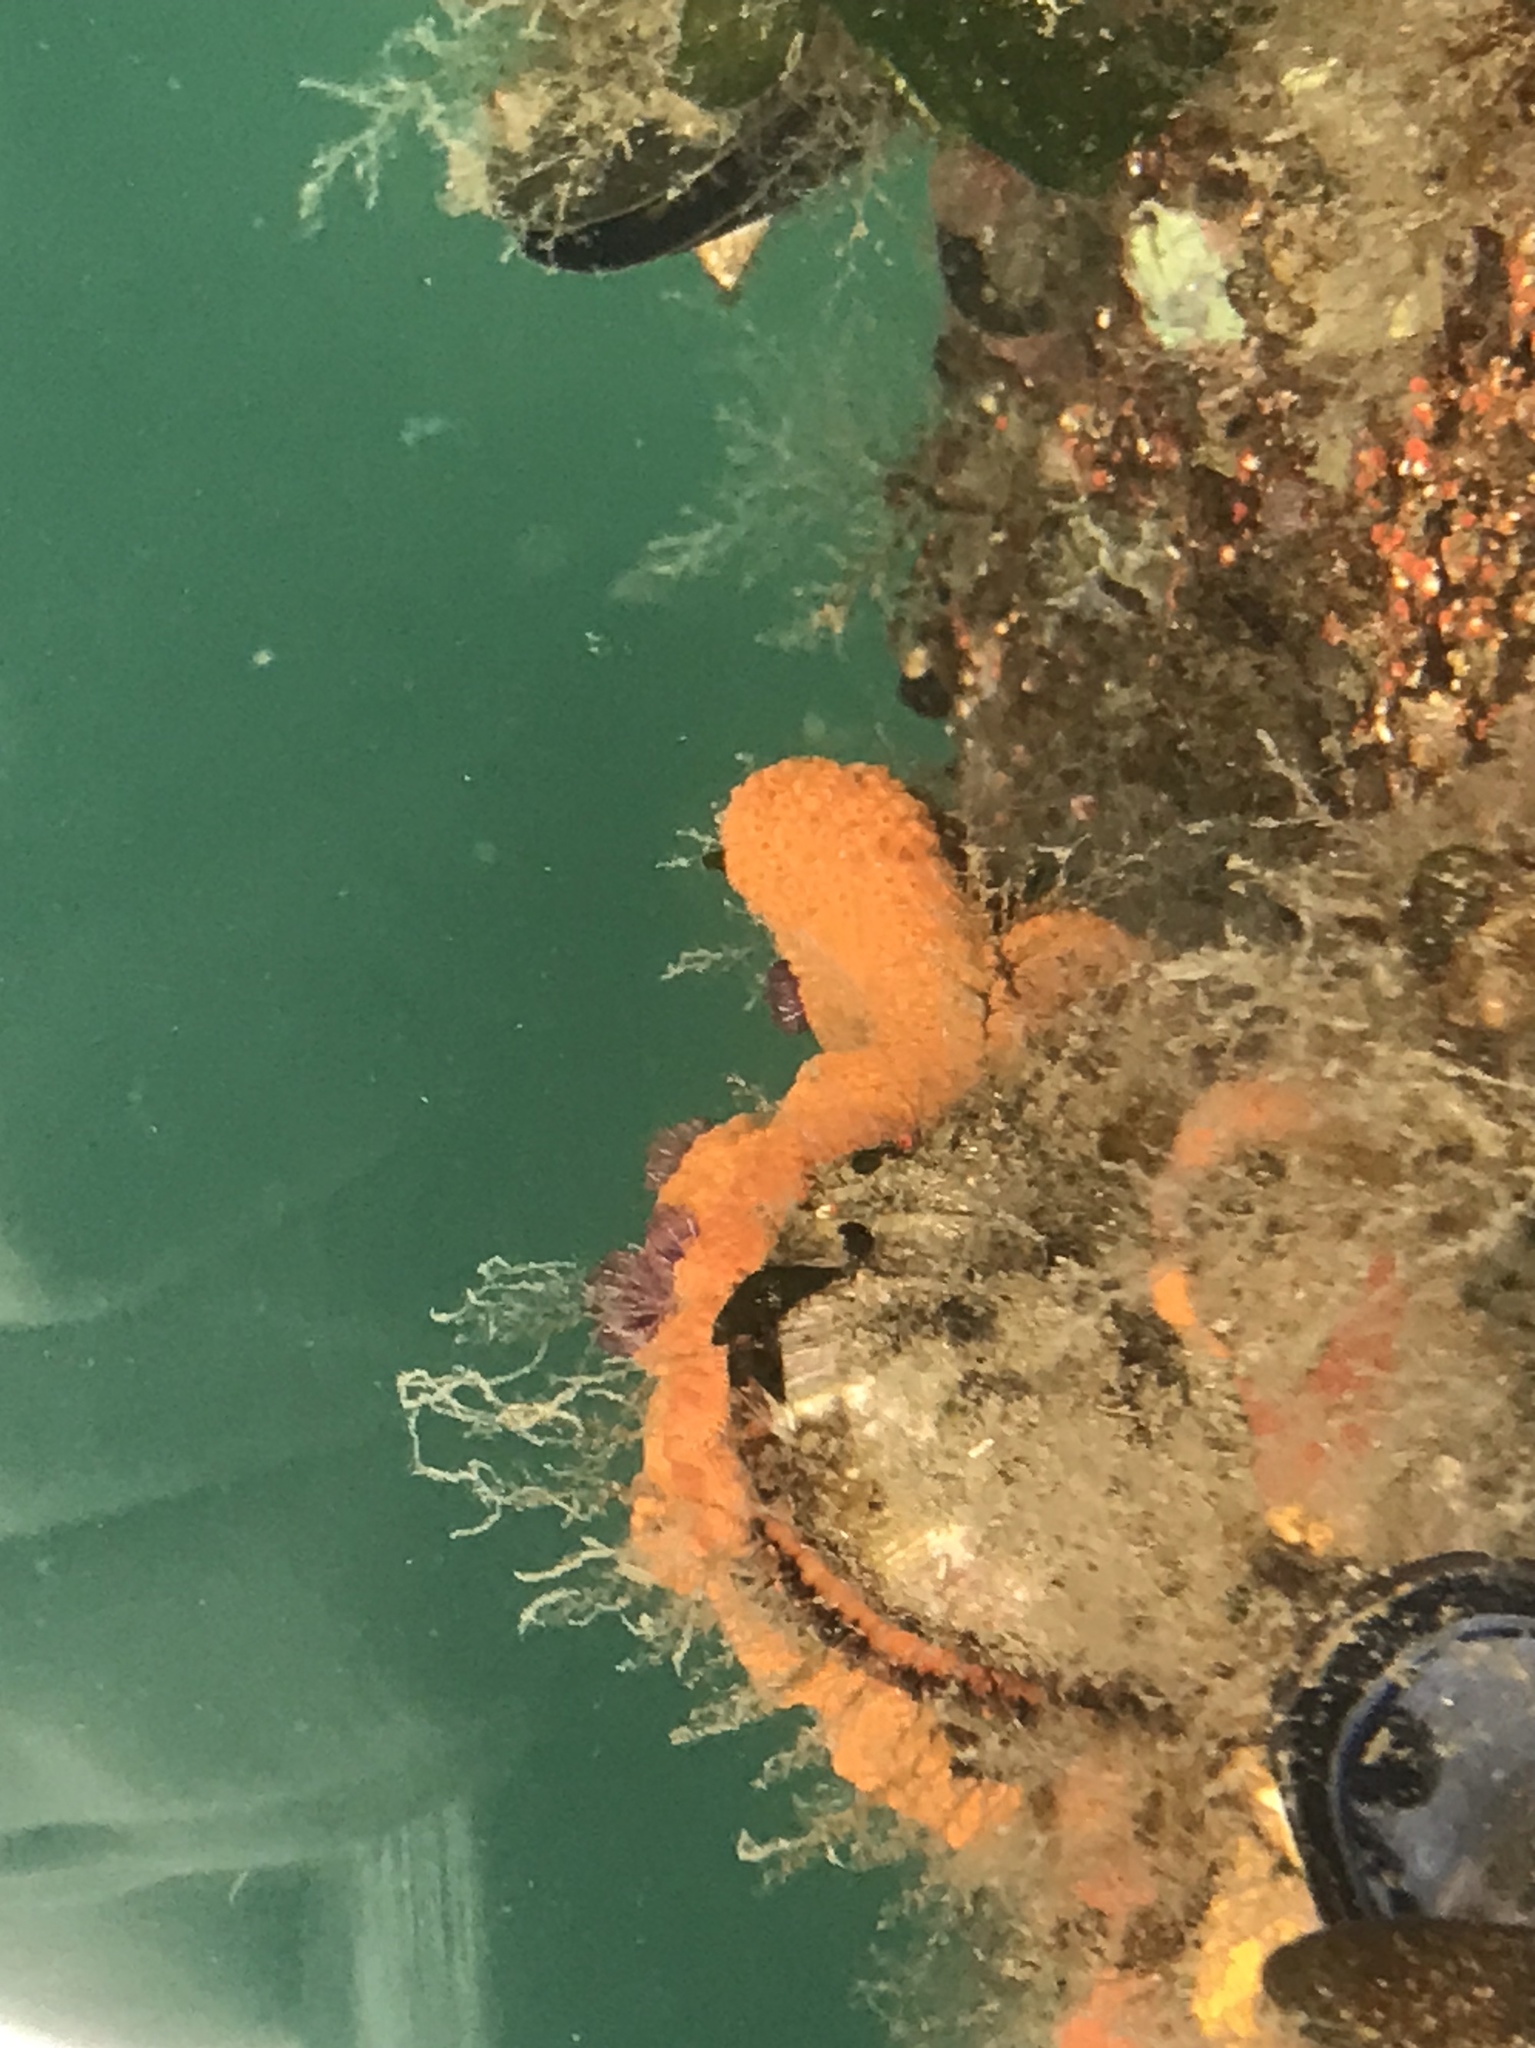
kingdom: Animalia
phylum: Chordata
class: Ascidiacea
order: Stolidobranchia
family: Styelidae
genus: Botrylloides
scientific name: Botrylloides violaceus
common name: Colonial sea squirt
